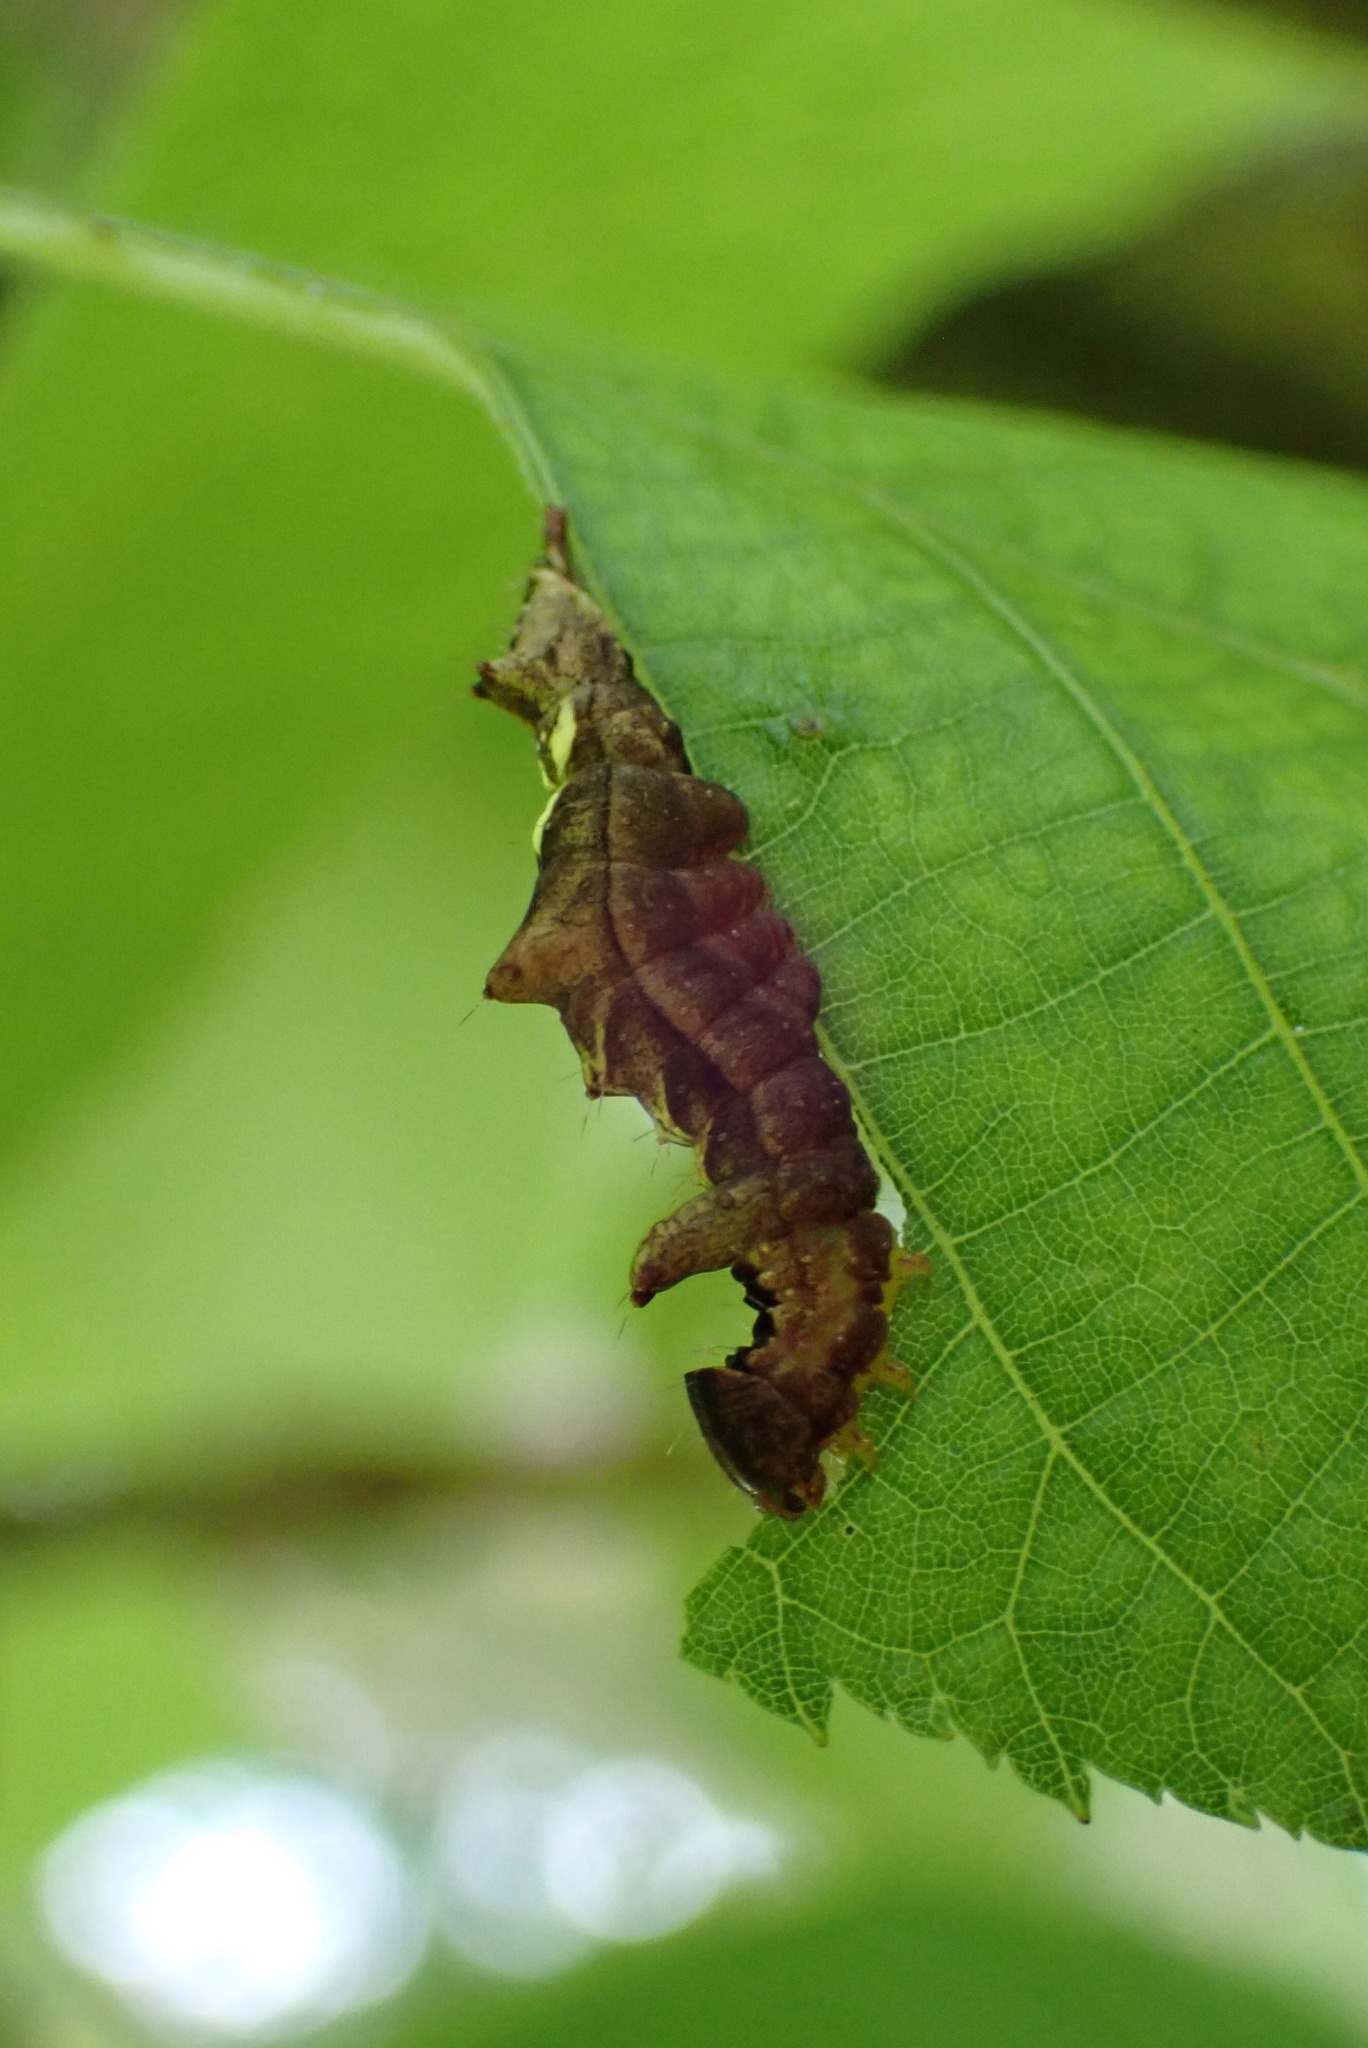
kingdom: Animalia
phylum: Arthropoda
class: Insecta
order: Lepidoptera
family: Notodontidae
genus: Schizura
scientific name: Schizura
